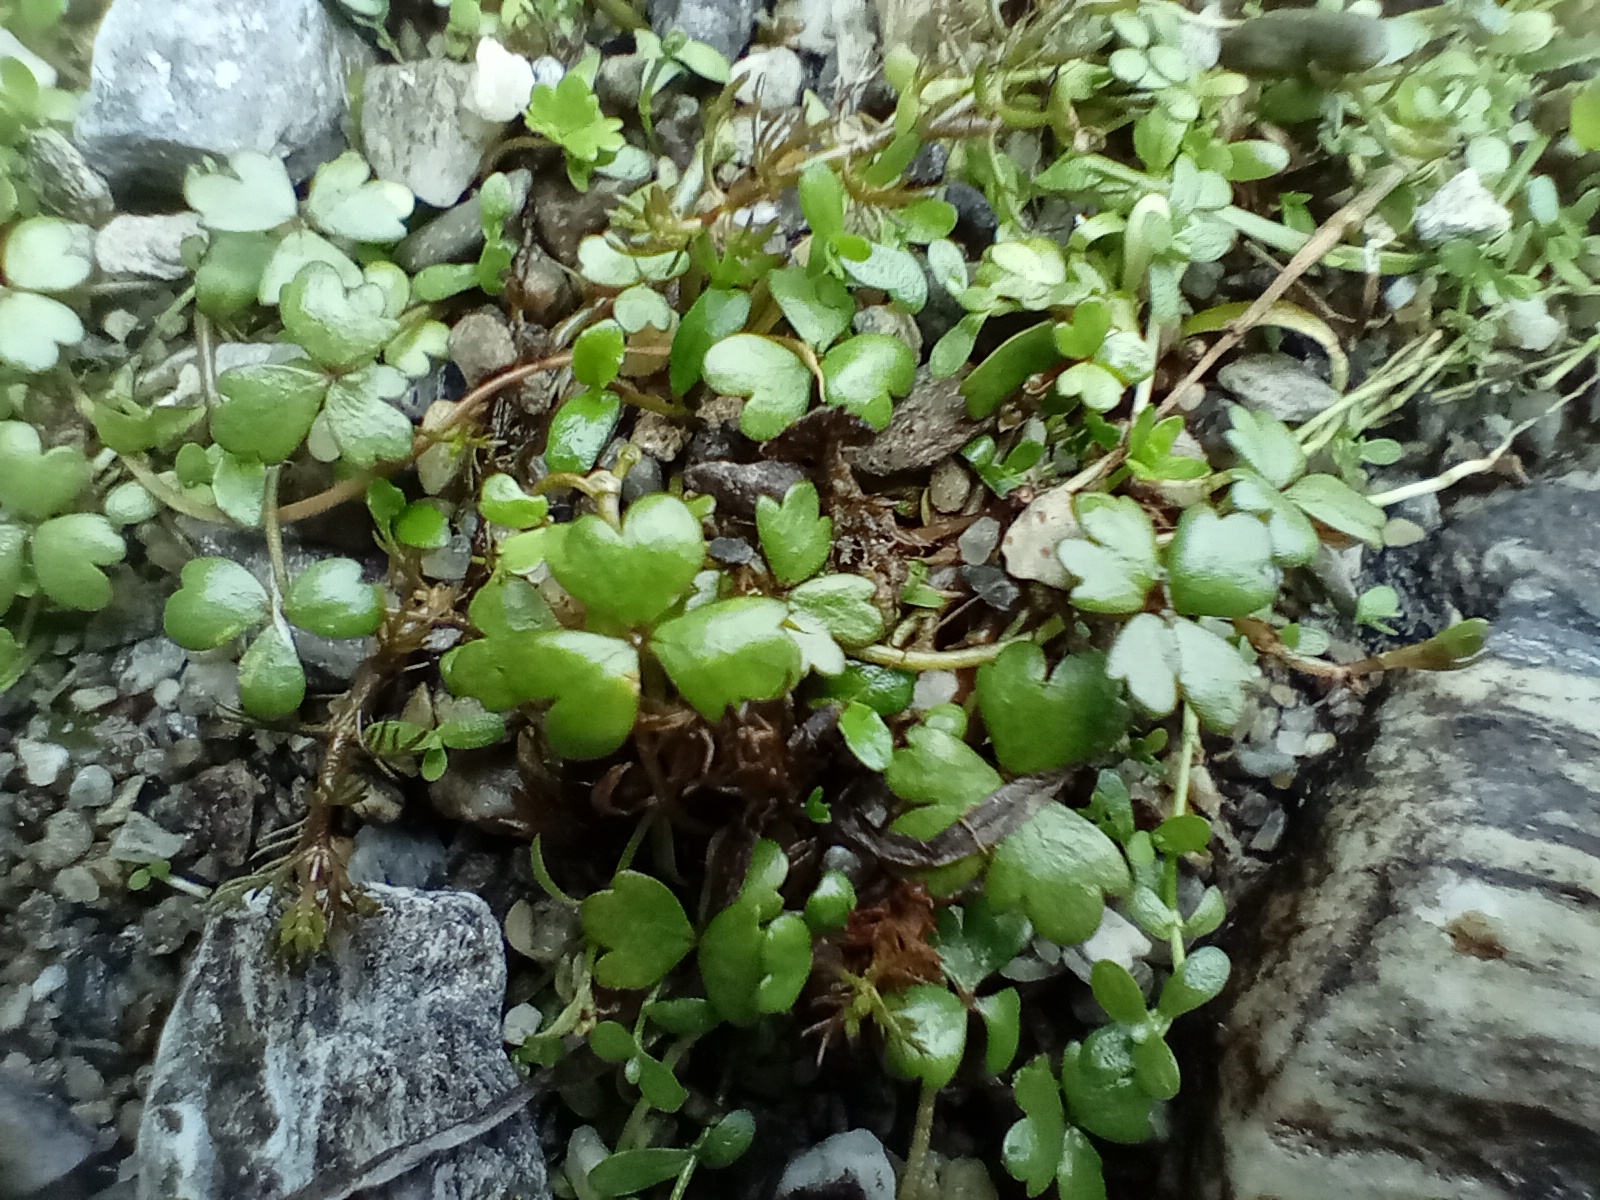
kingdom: Plantae
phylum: Tracheophyta
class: Magnoliopsida
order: Apiales
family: Araliaceae
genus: Hydrocotyle
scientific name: Hydrocotyle sulcata
